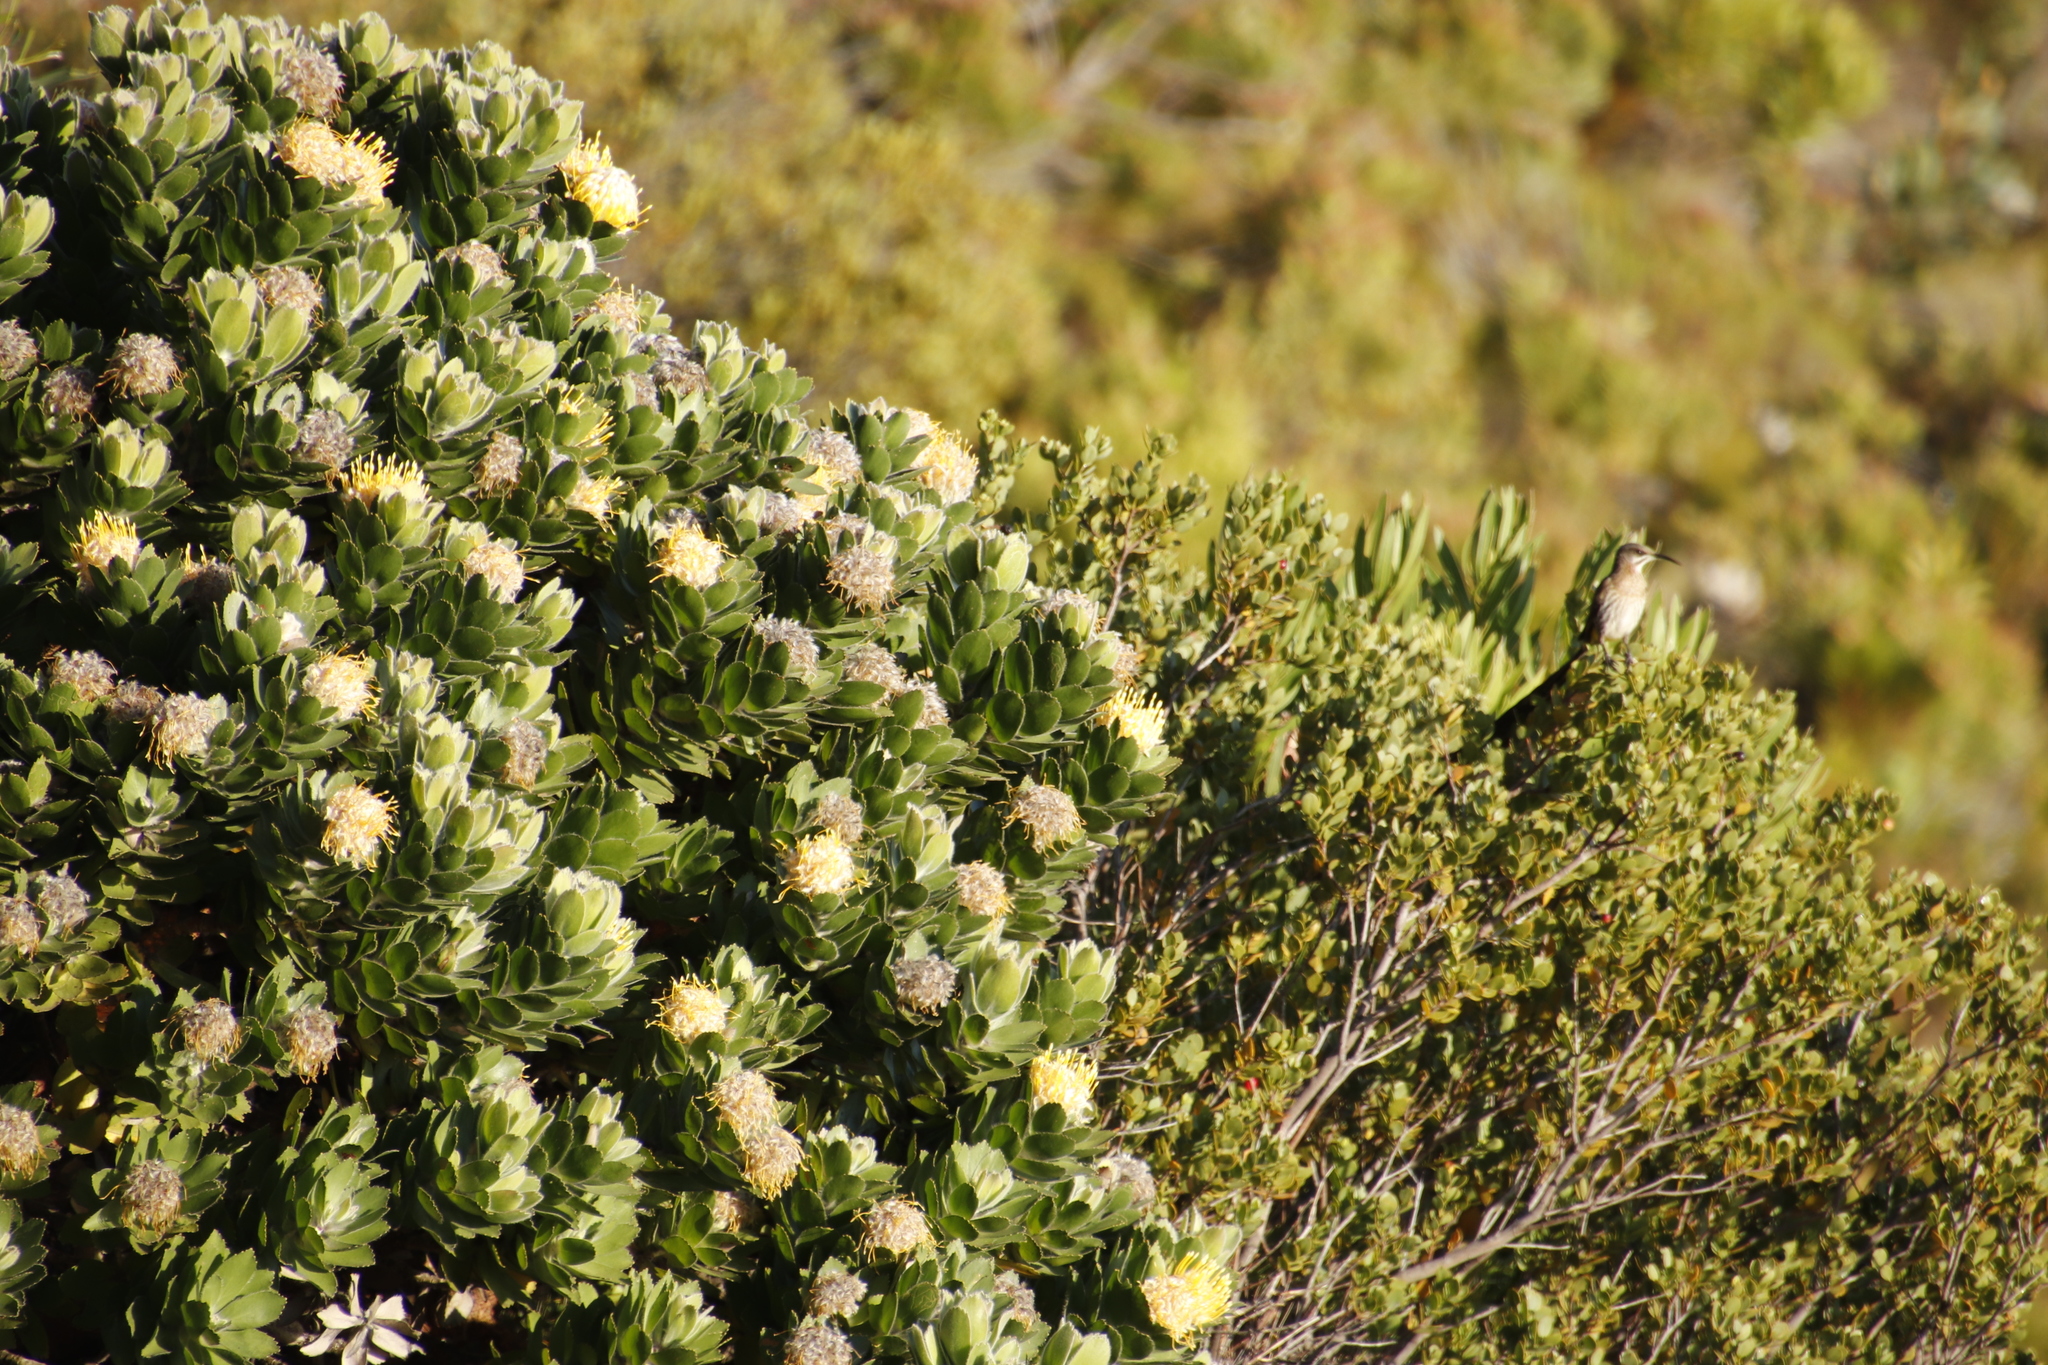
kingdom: Plantae
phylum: Tracheophyta
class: Magnoliopsida
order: Proteales
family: Proteaceae
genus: Leucospermum
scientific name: Leucospermum conocarpodendron
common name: Tree pincushion
